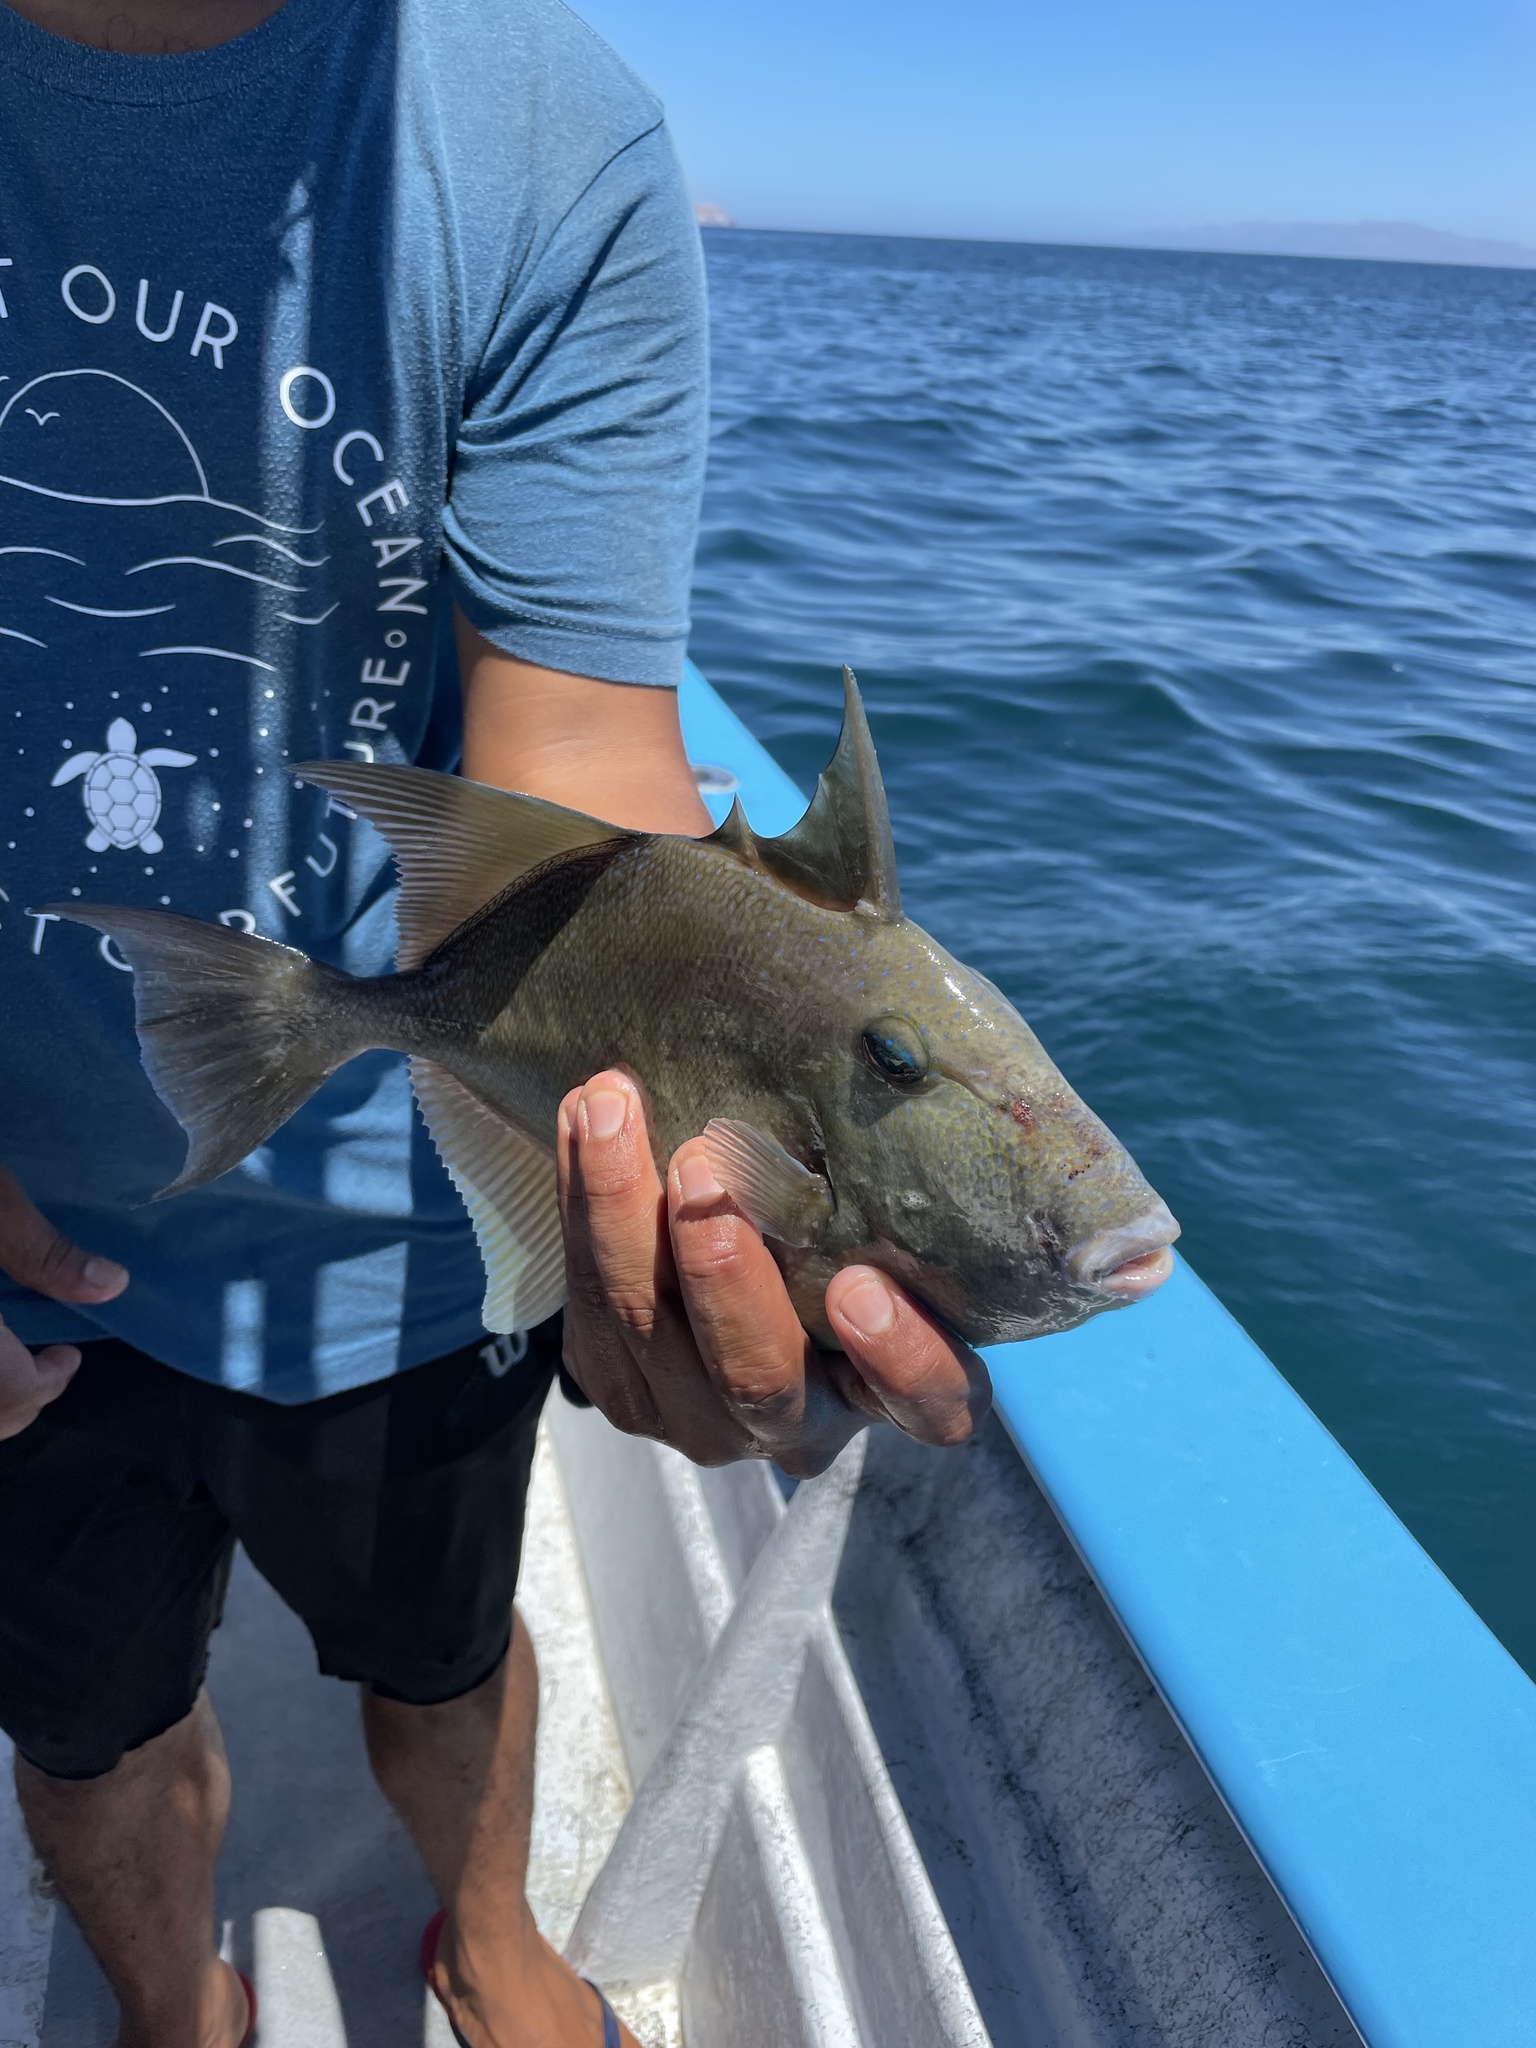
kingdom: Animalia
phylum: Chordata
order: Tetraodontiformes
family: Balistidae
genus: Balistes
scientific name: Balistes polylepis
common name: Finescale triggerfish
